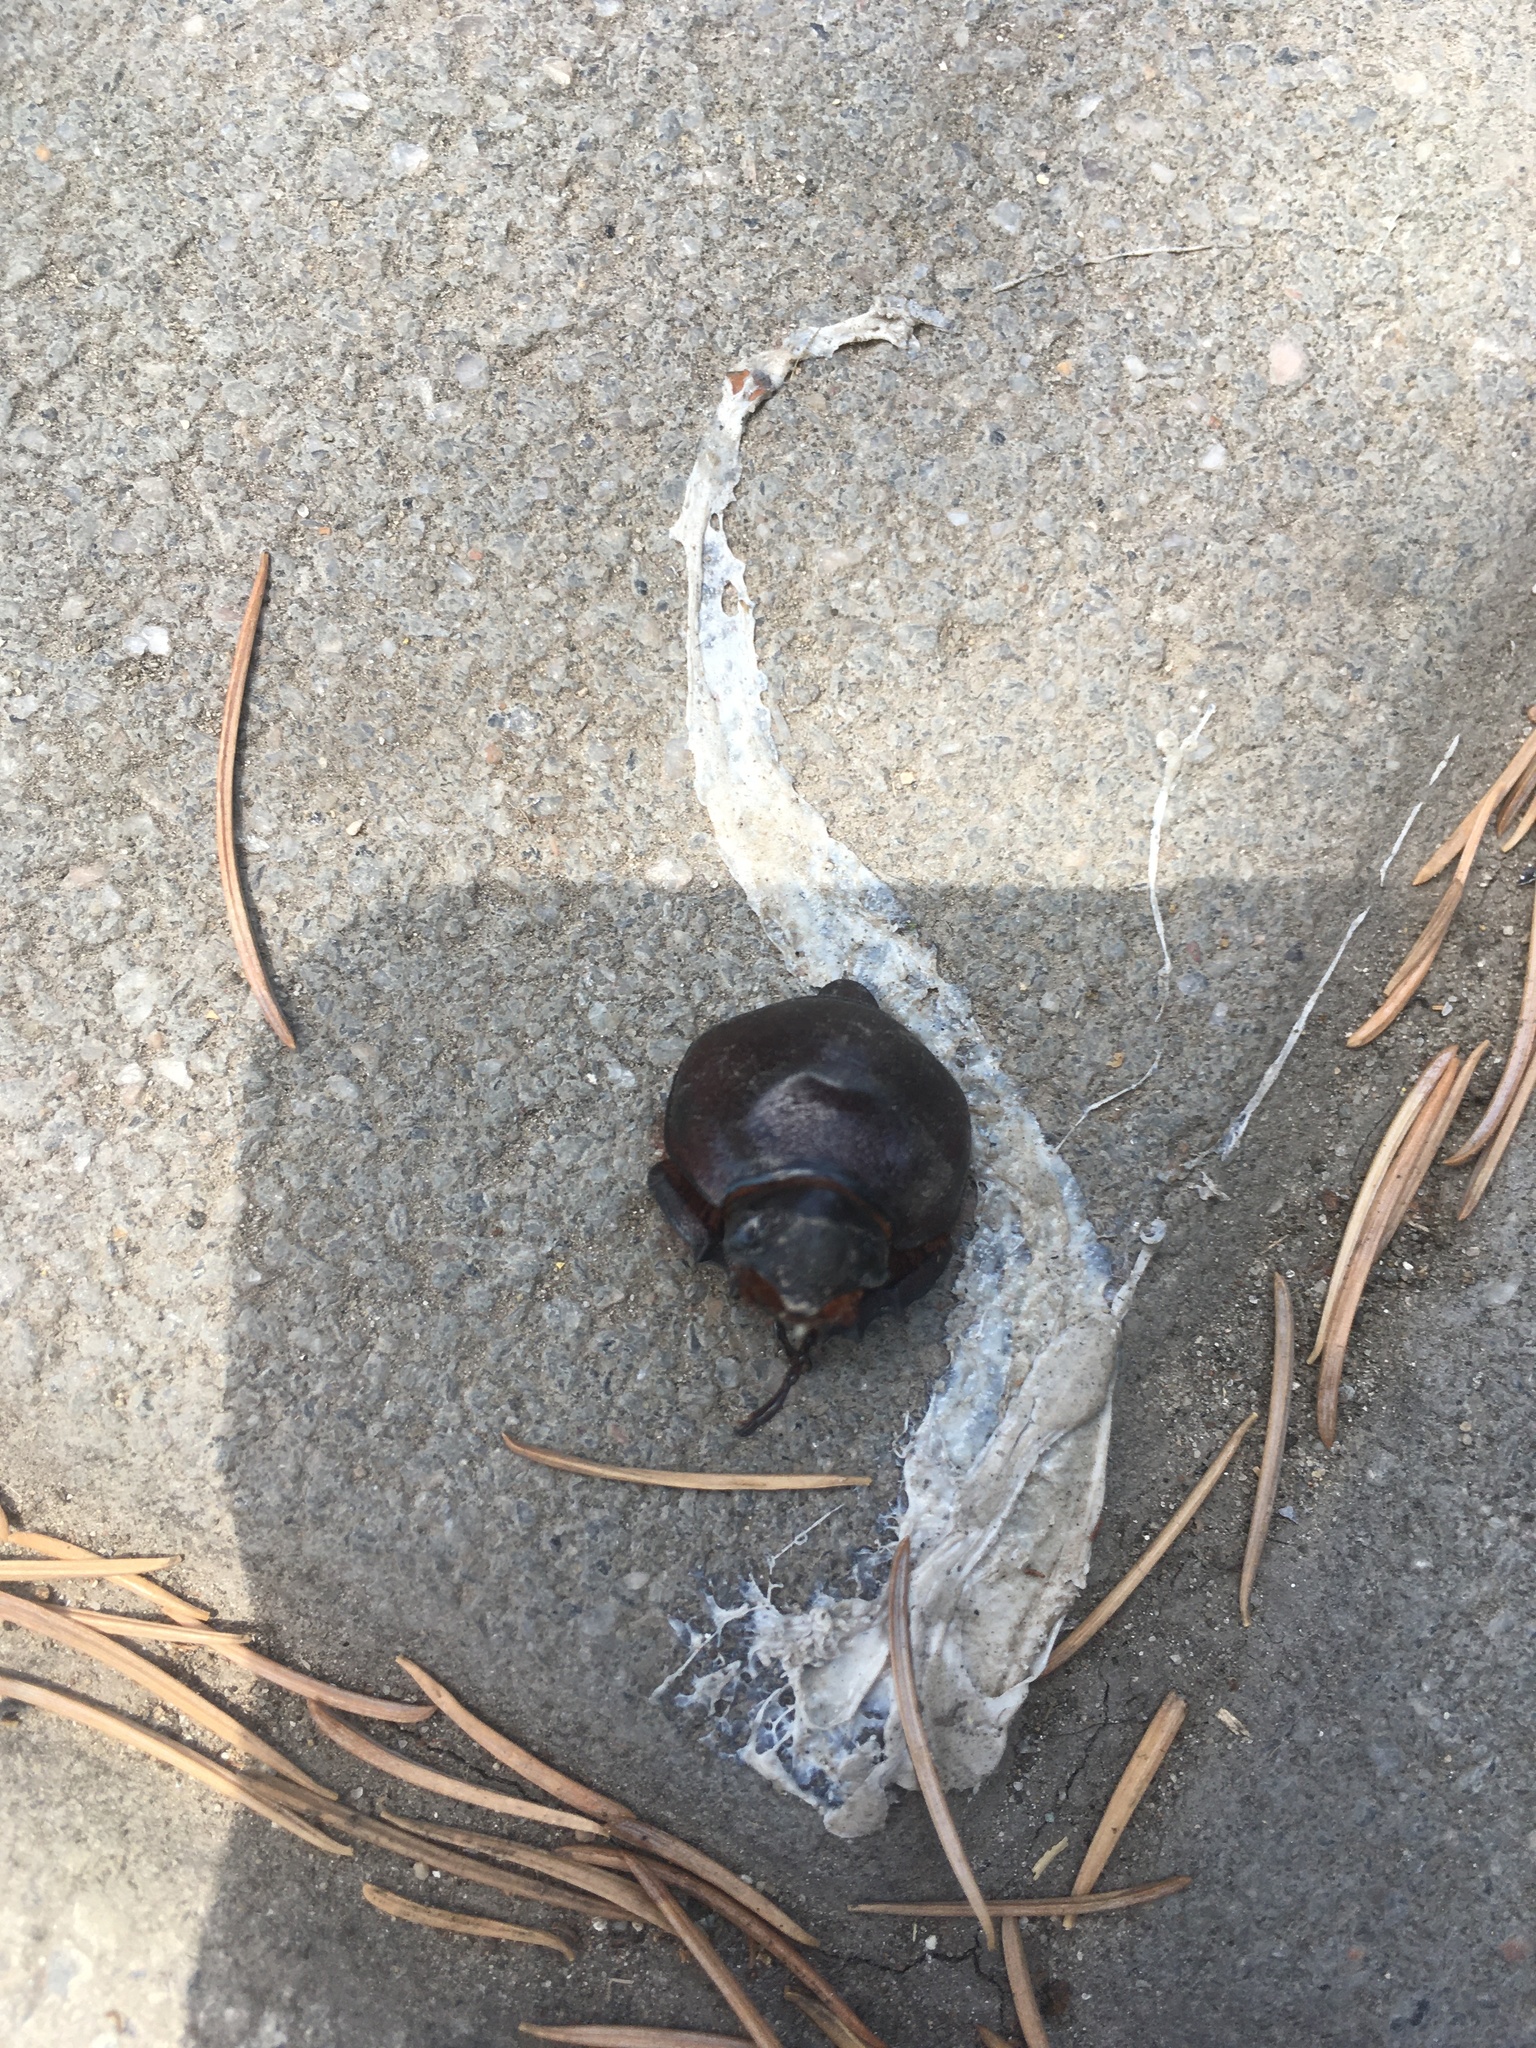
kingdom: Animalia
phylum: Arthropoda
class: Insecta
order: Coleoptera
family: Scarabaeidae
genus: Oryctes
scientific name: Oryctes nasicornis
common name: European rhinoceros beetle
